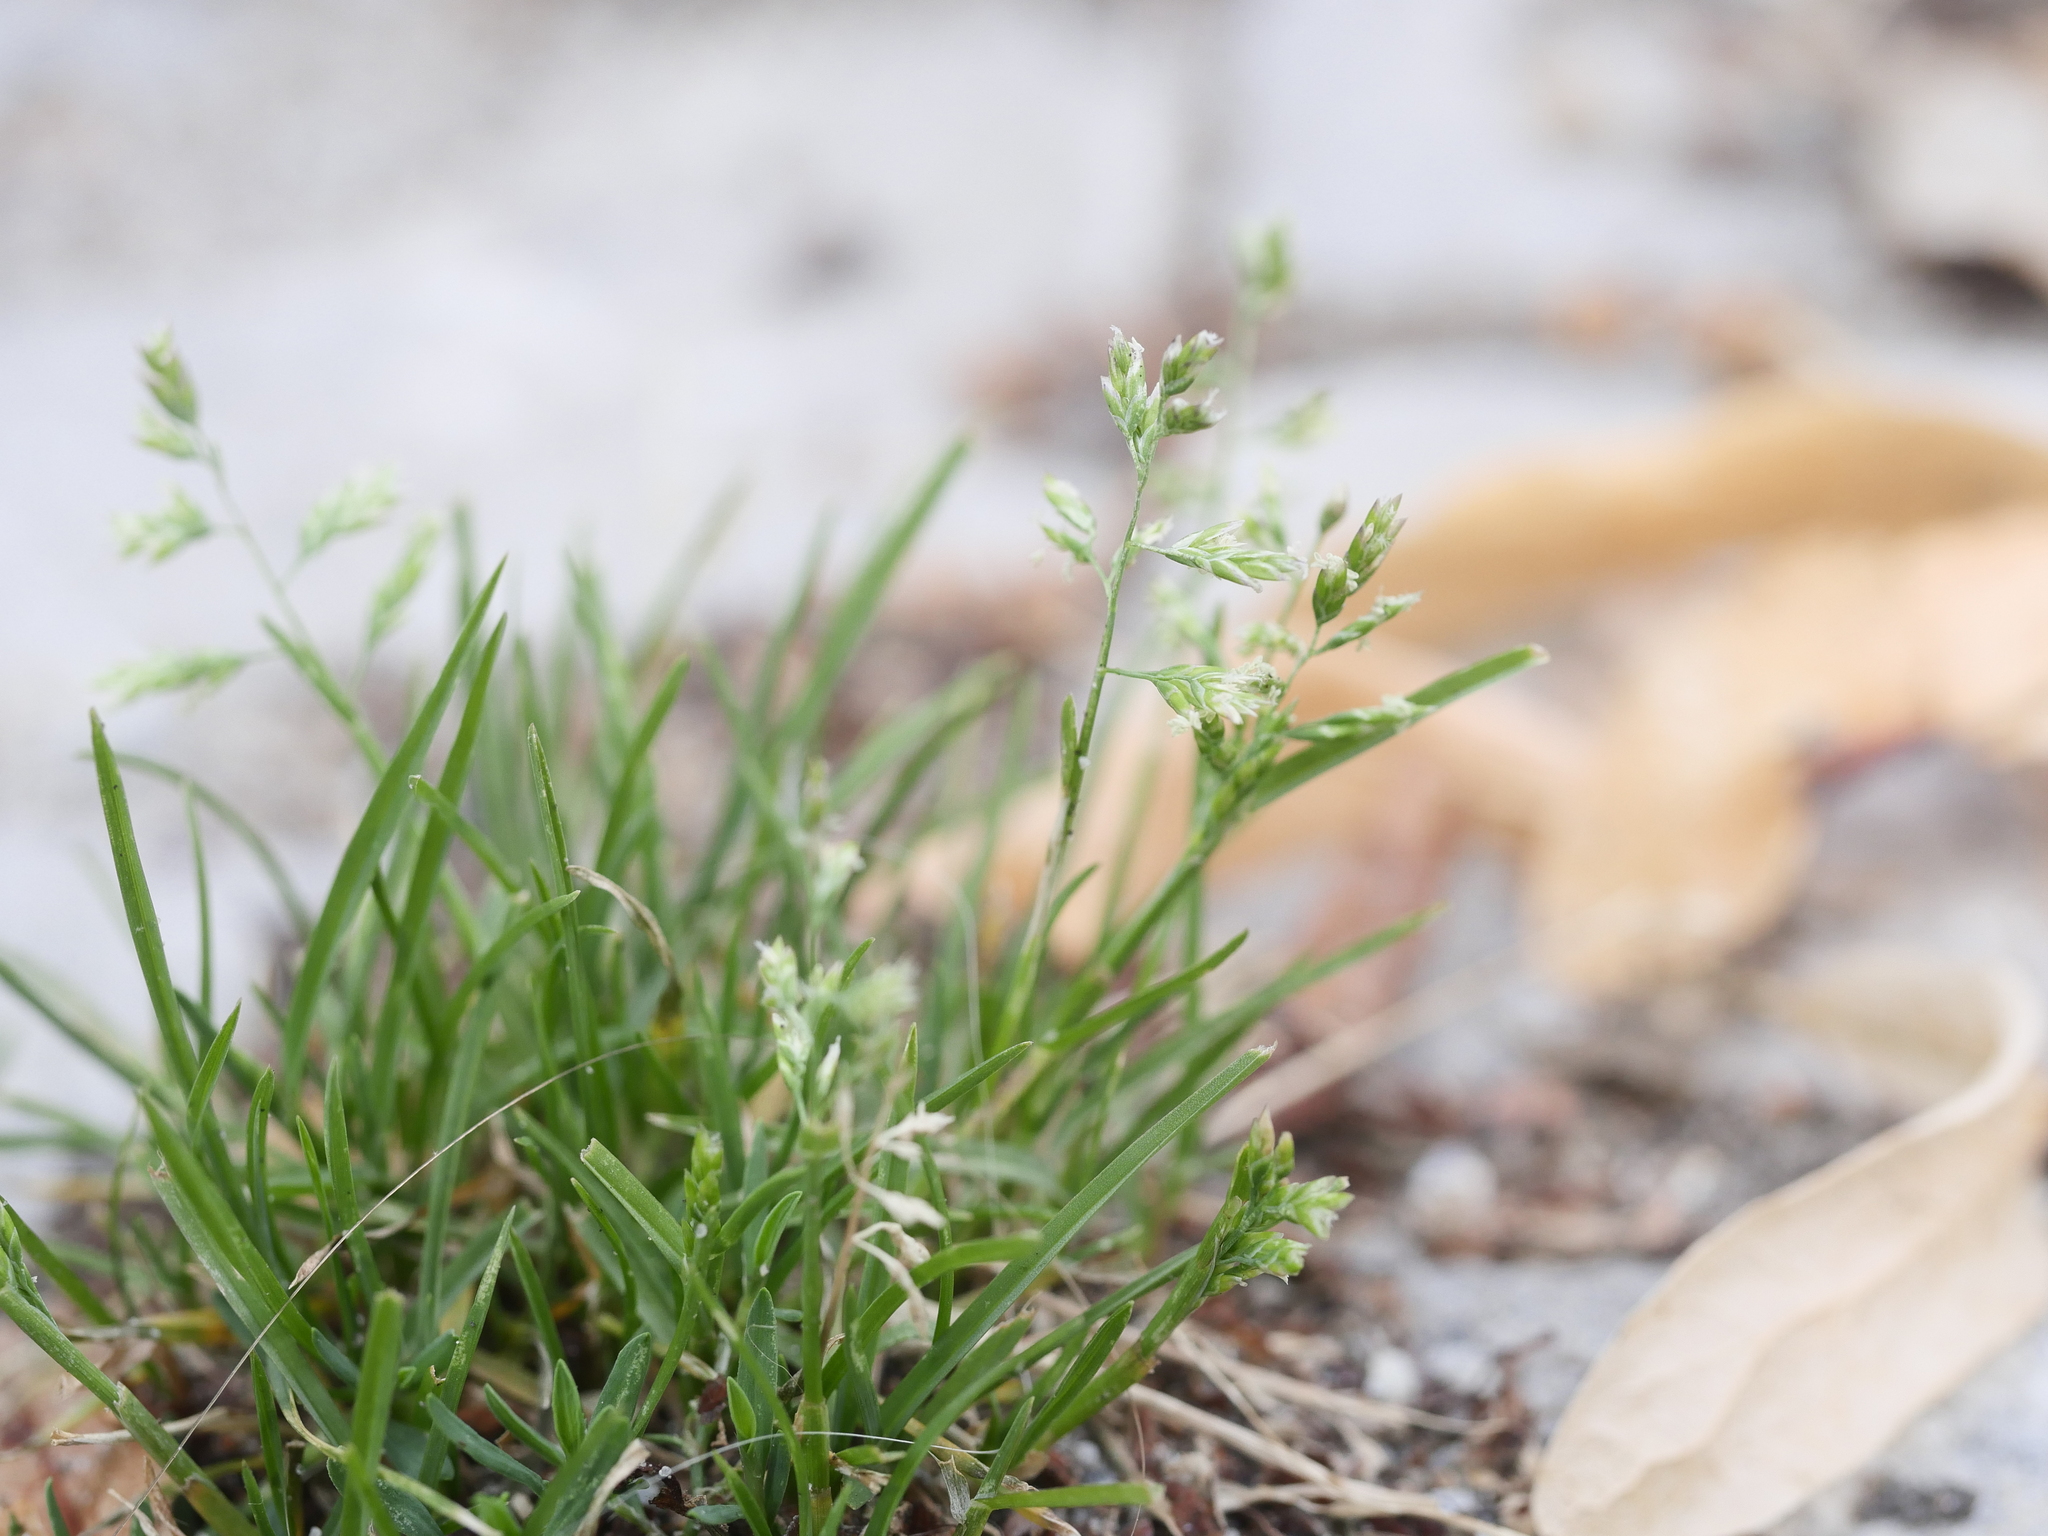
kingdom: Plantae
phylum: Tracheophyta
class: Liliopsida
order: Poales
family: Poaceae
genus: Poa
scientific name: Poa annua
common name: Annual bluegrass
